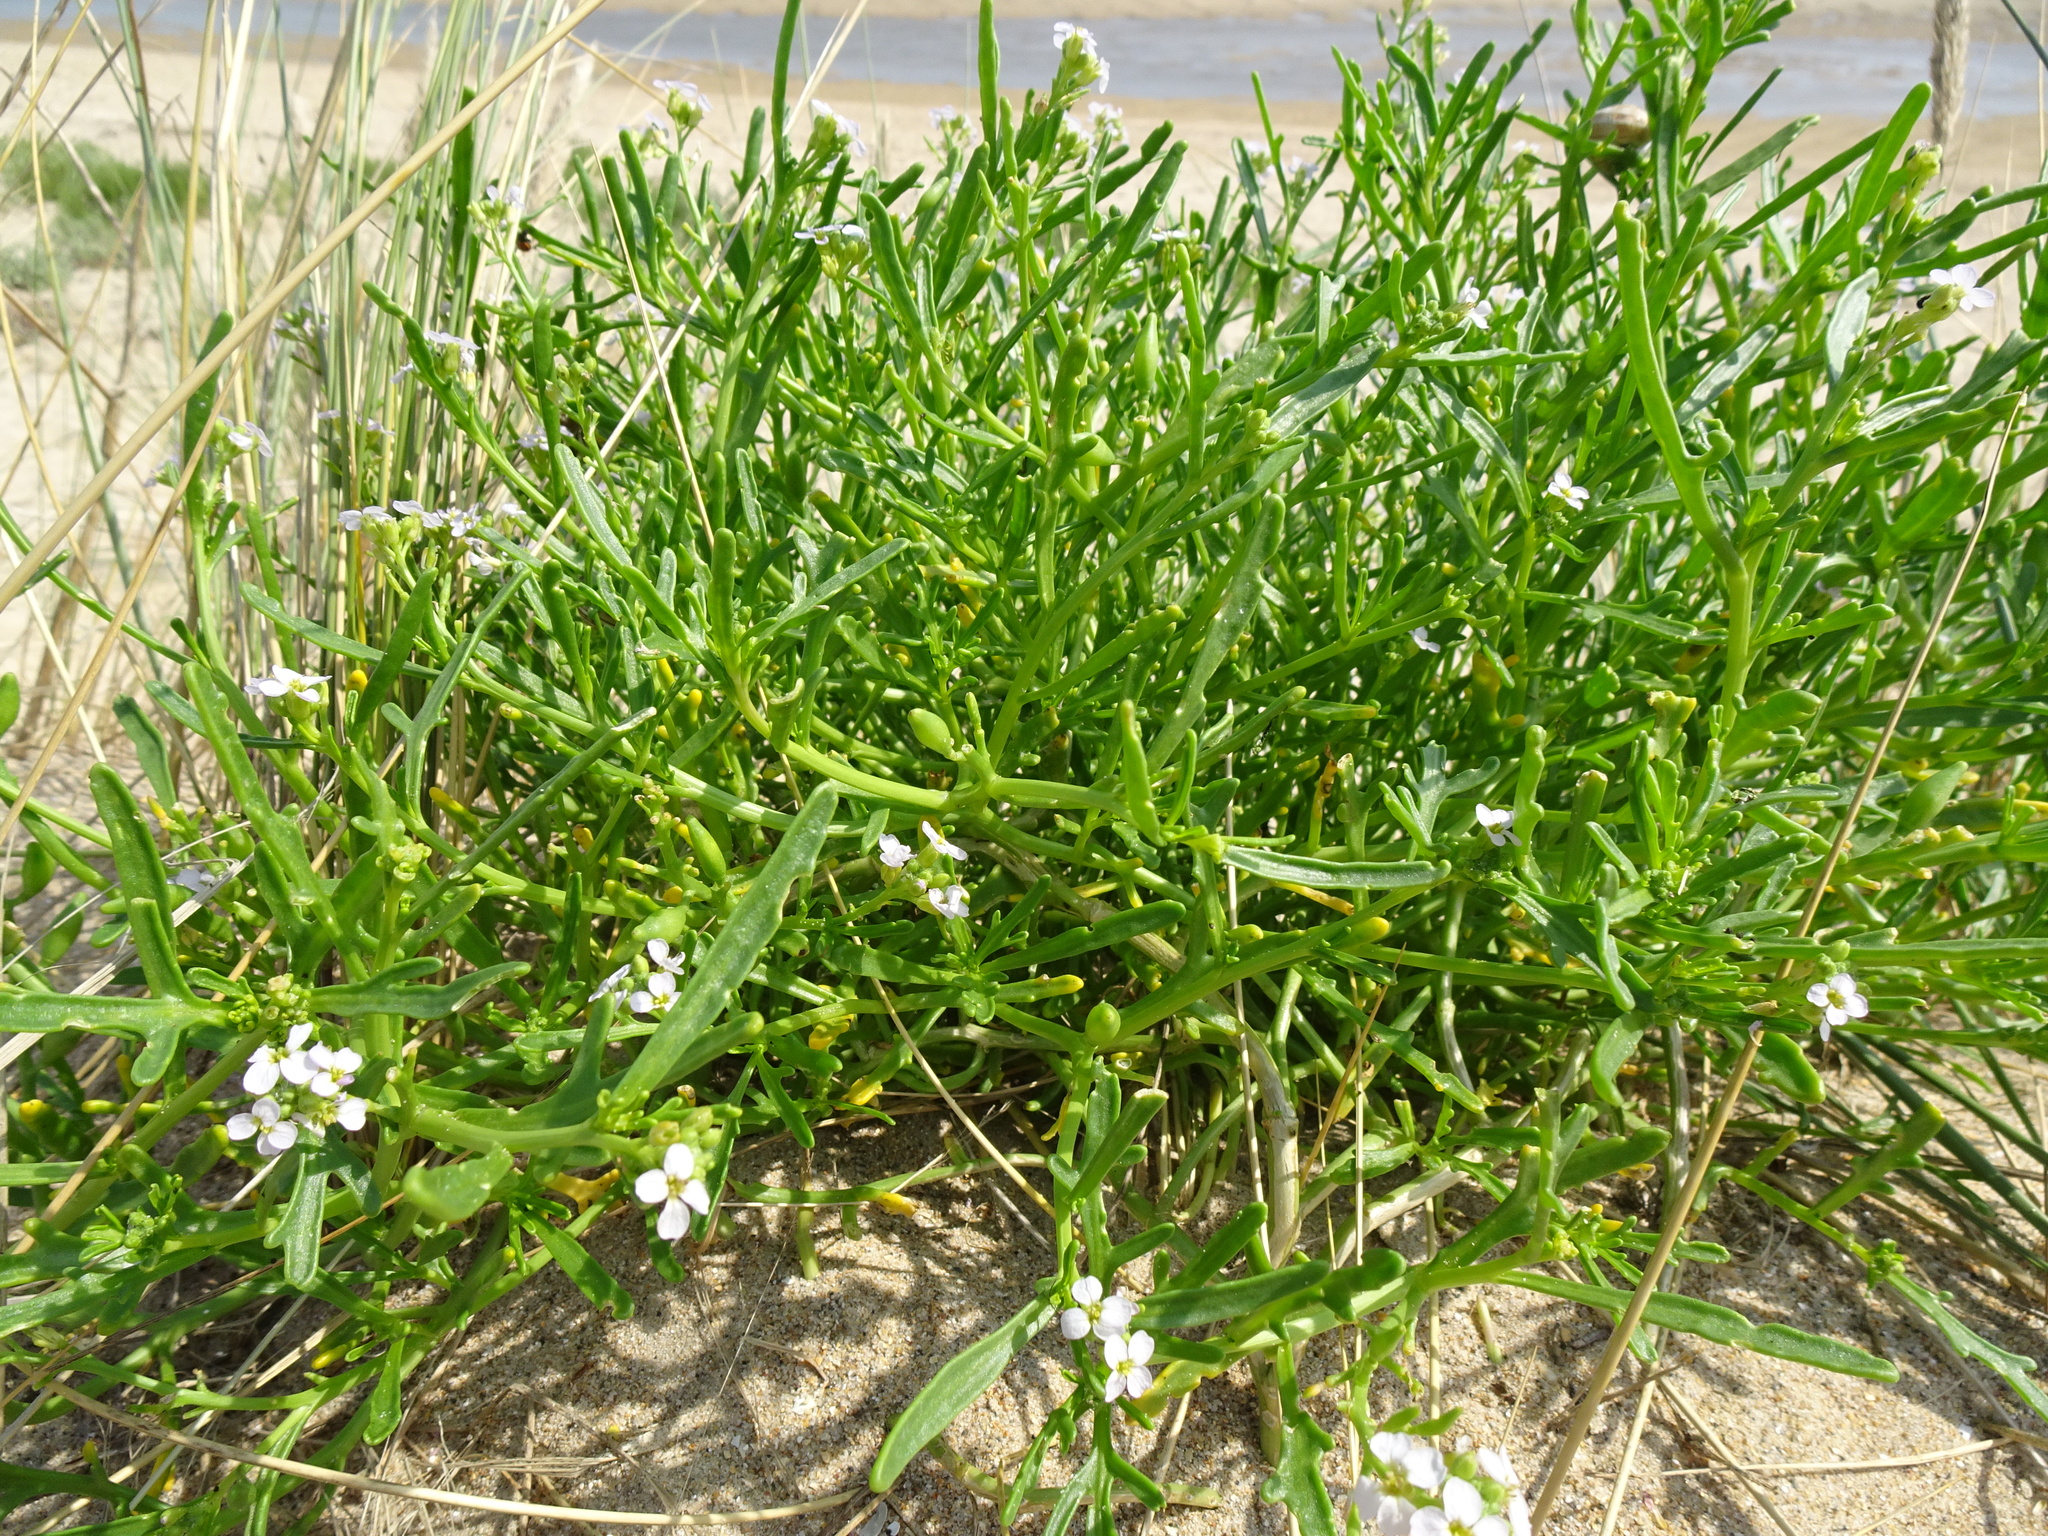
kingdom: Plantae
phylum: Tracheophyta
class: Magnoliopsida
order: Brassicales
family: Brassicaceae
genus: Cakile
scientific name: Cakile maritima
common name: Sea rocket
